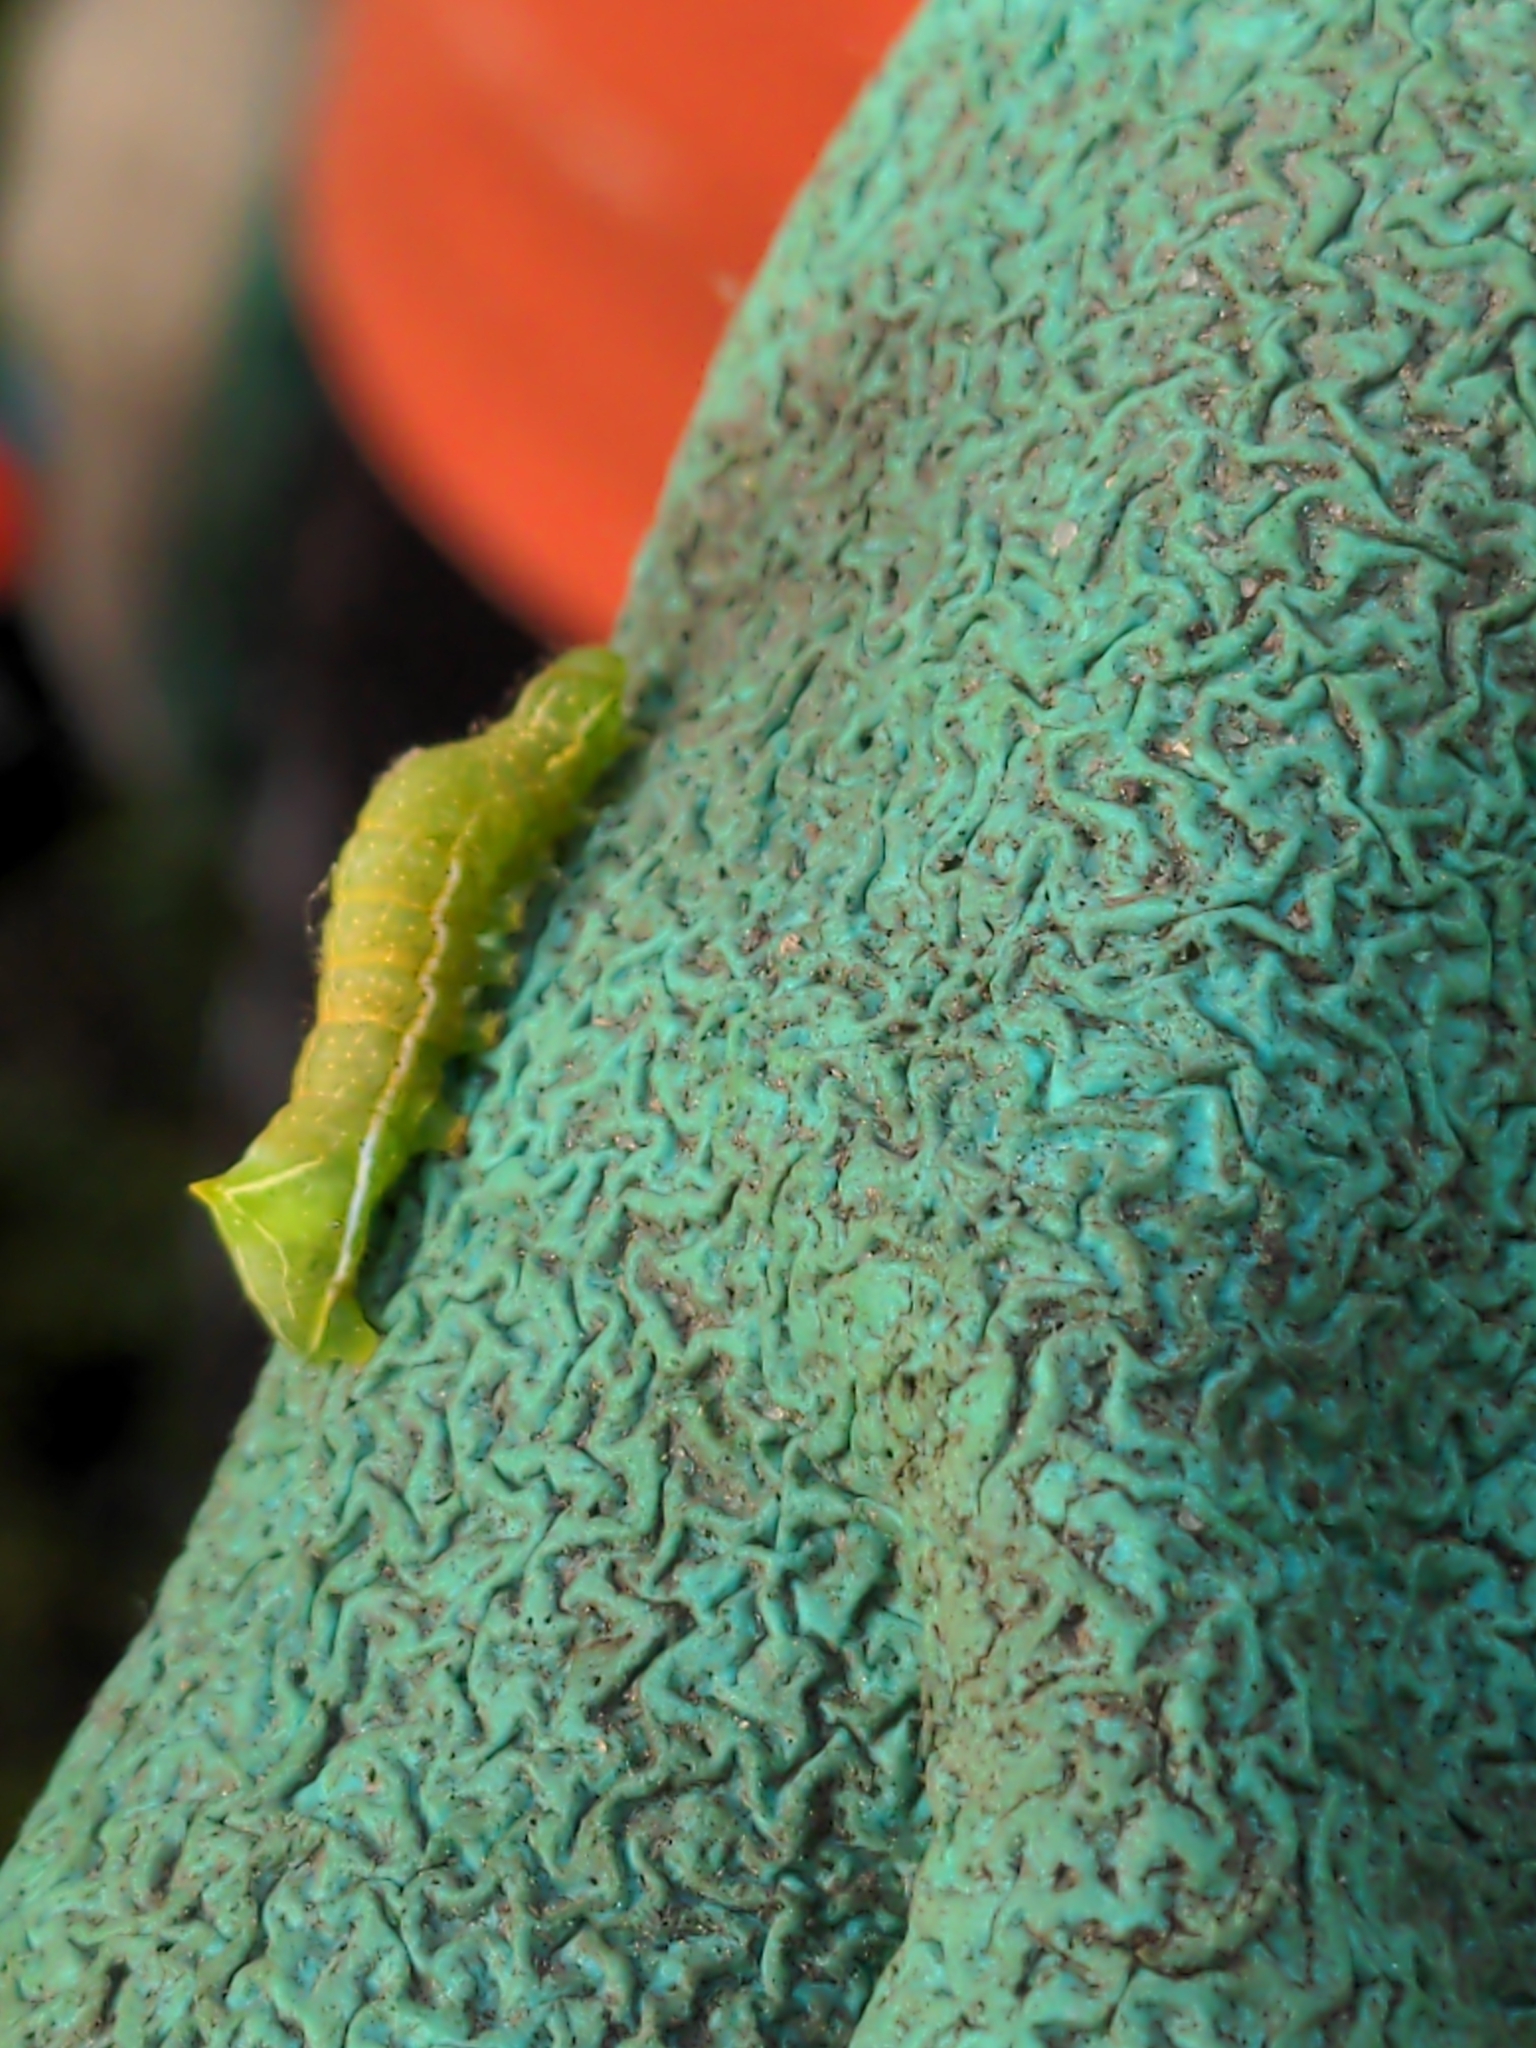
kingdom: Animalia
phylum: Arthropoda
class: Insecta
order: Lepidoptera
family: Noctuidae
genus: Amphipyra
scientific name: Amphipyra berbera
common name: Svensson's copper underwing
